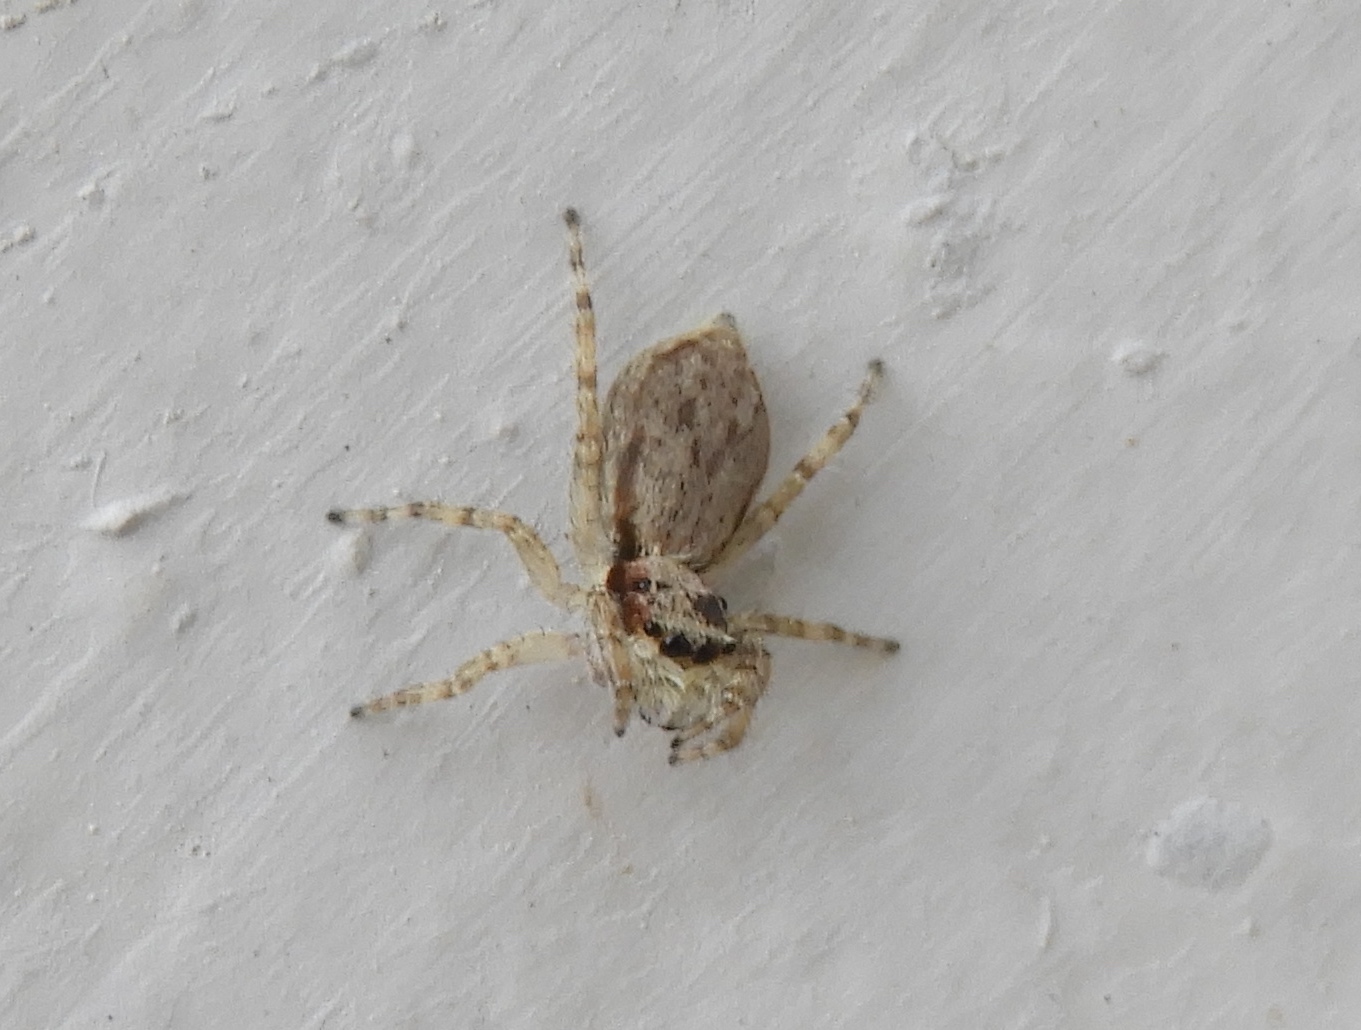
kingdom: Animalia
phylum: Arthropoda
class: Arachnida
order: Araneae
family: Salticidae
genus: Menemerus
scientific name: Menemerus bivittatus
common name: Gray wall jumper
